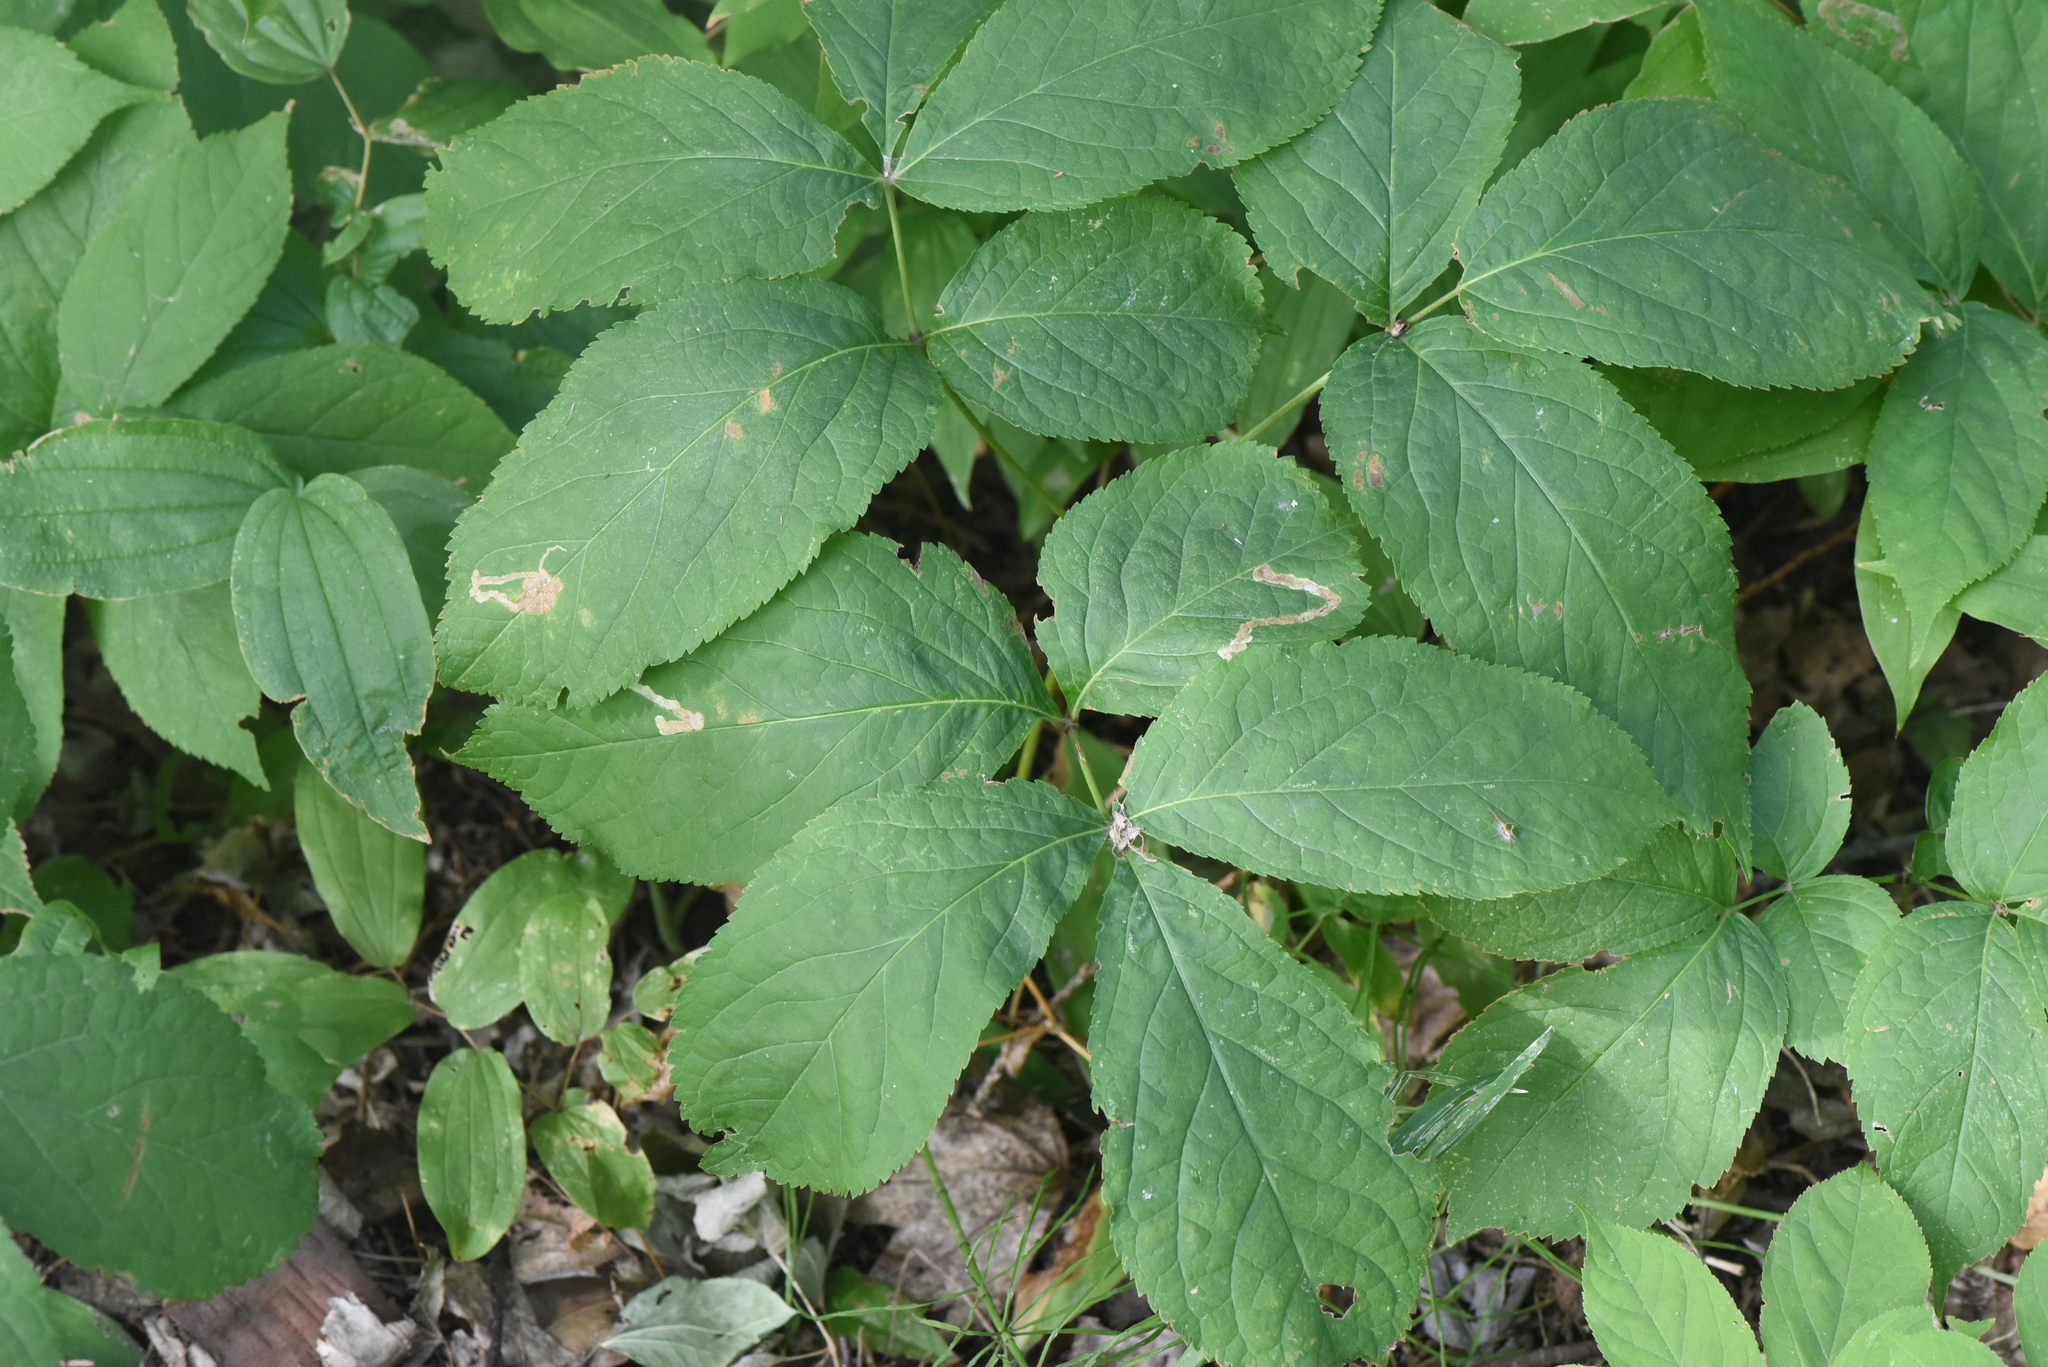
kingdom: Plantae
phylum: Tracheophyta
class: Magnoliopsida
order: Apiales
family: Araliaceae
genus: Aralia
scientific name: Aralia nudicaulis
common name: Wild sarsaparilla
